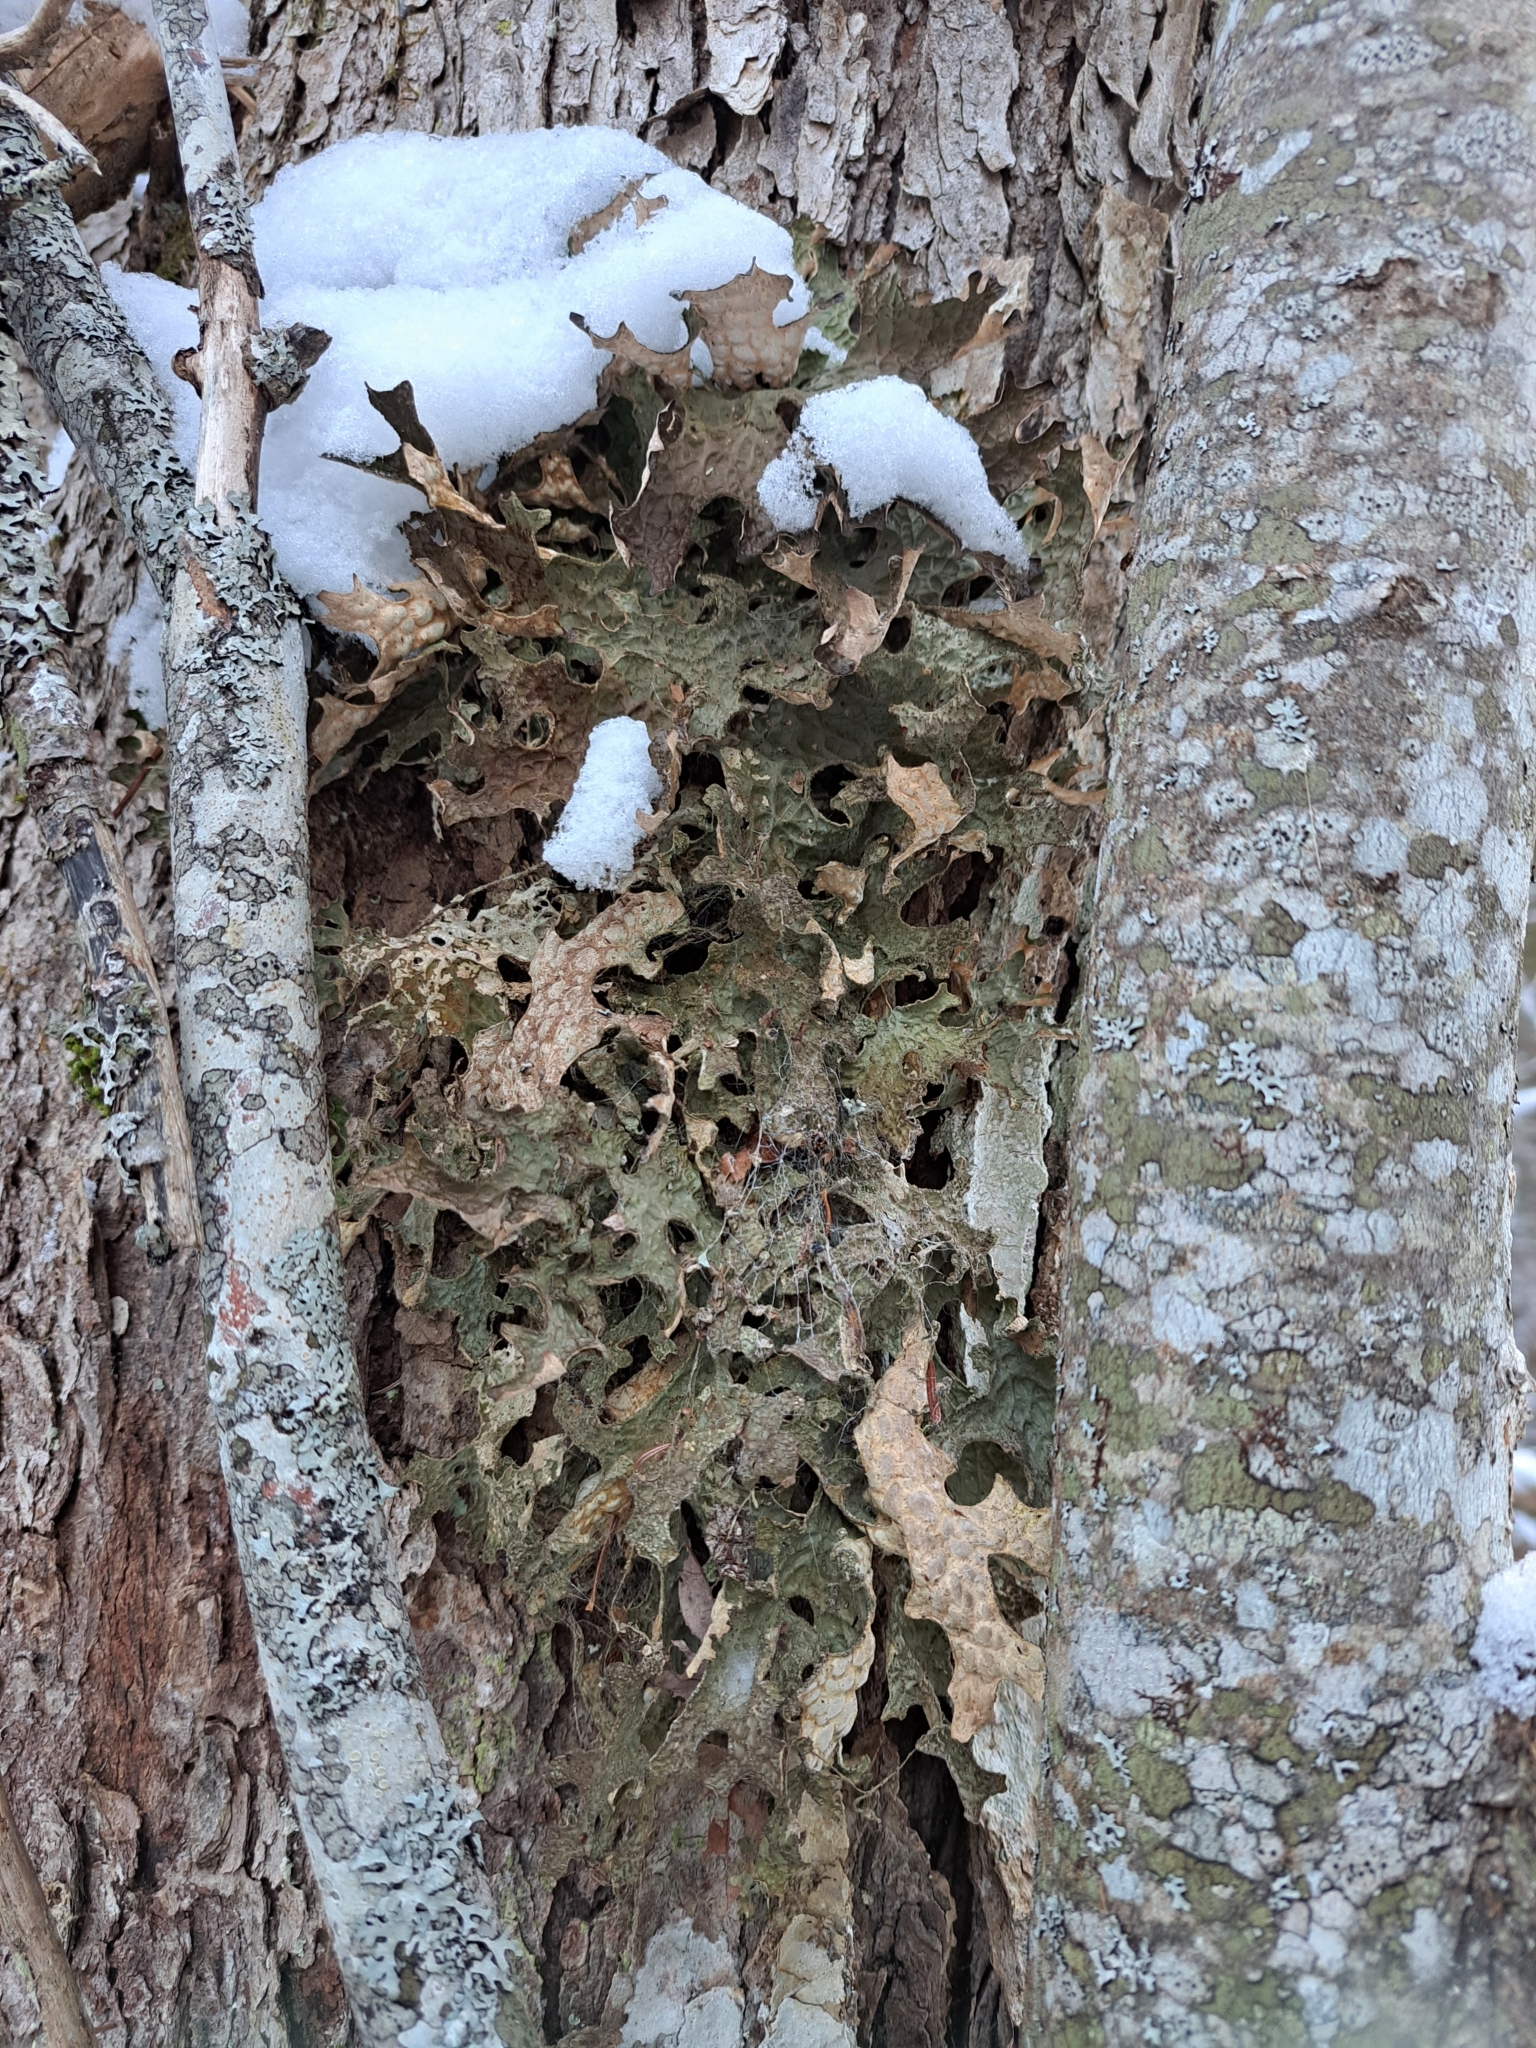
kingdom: Fungi
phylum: Ascomycota
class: Lecanoromycetes
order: Peltigerales
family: Lobariaceae
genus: Lobaria
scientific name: Lobaria pulmonaria
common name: Lungwort
